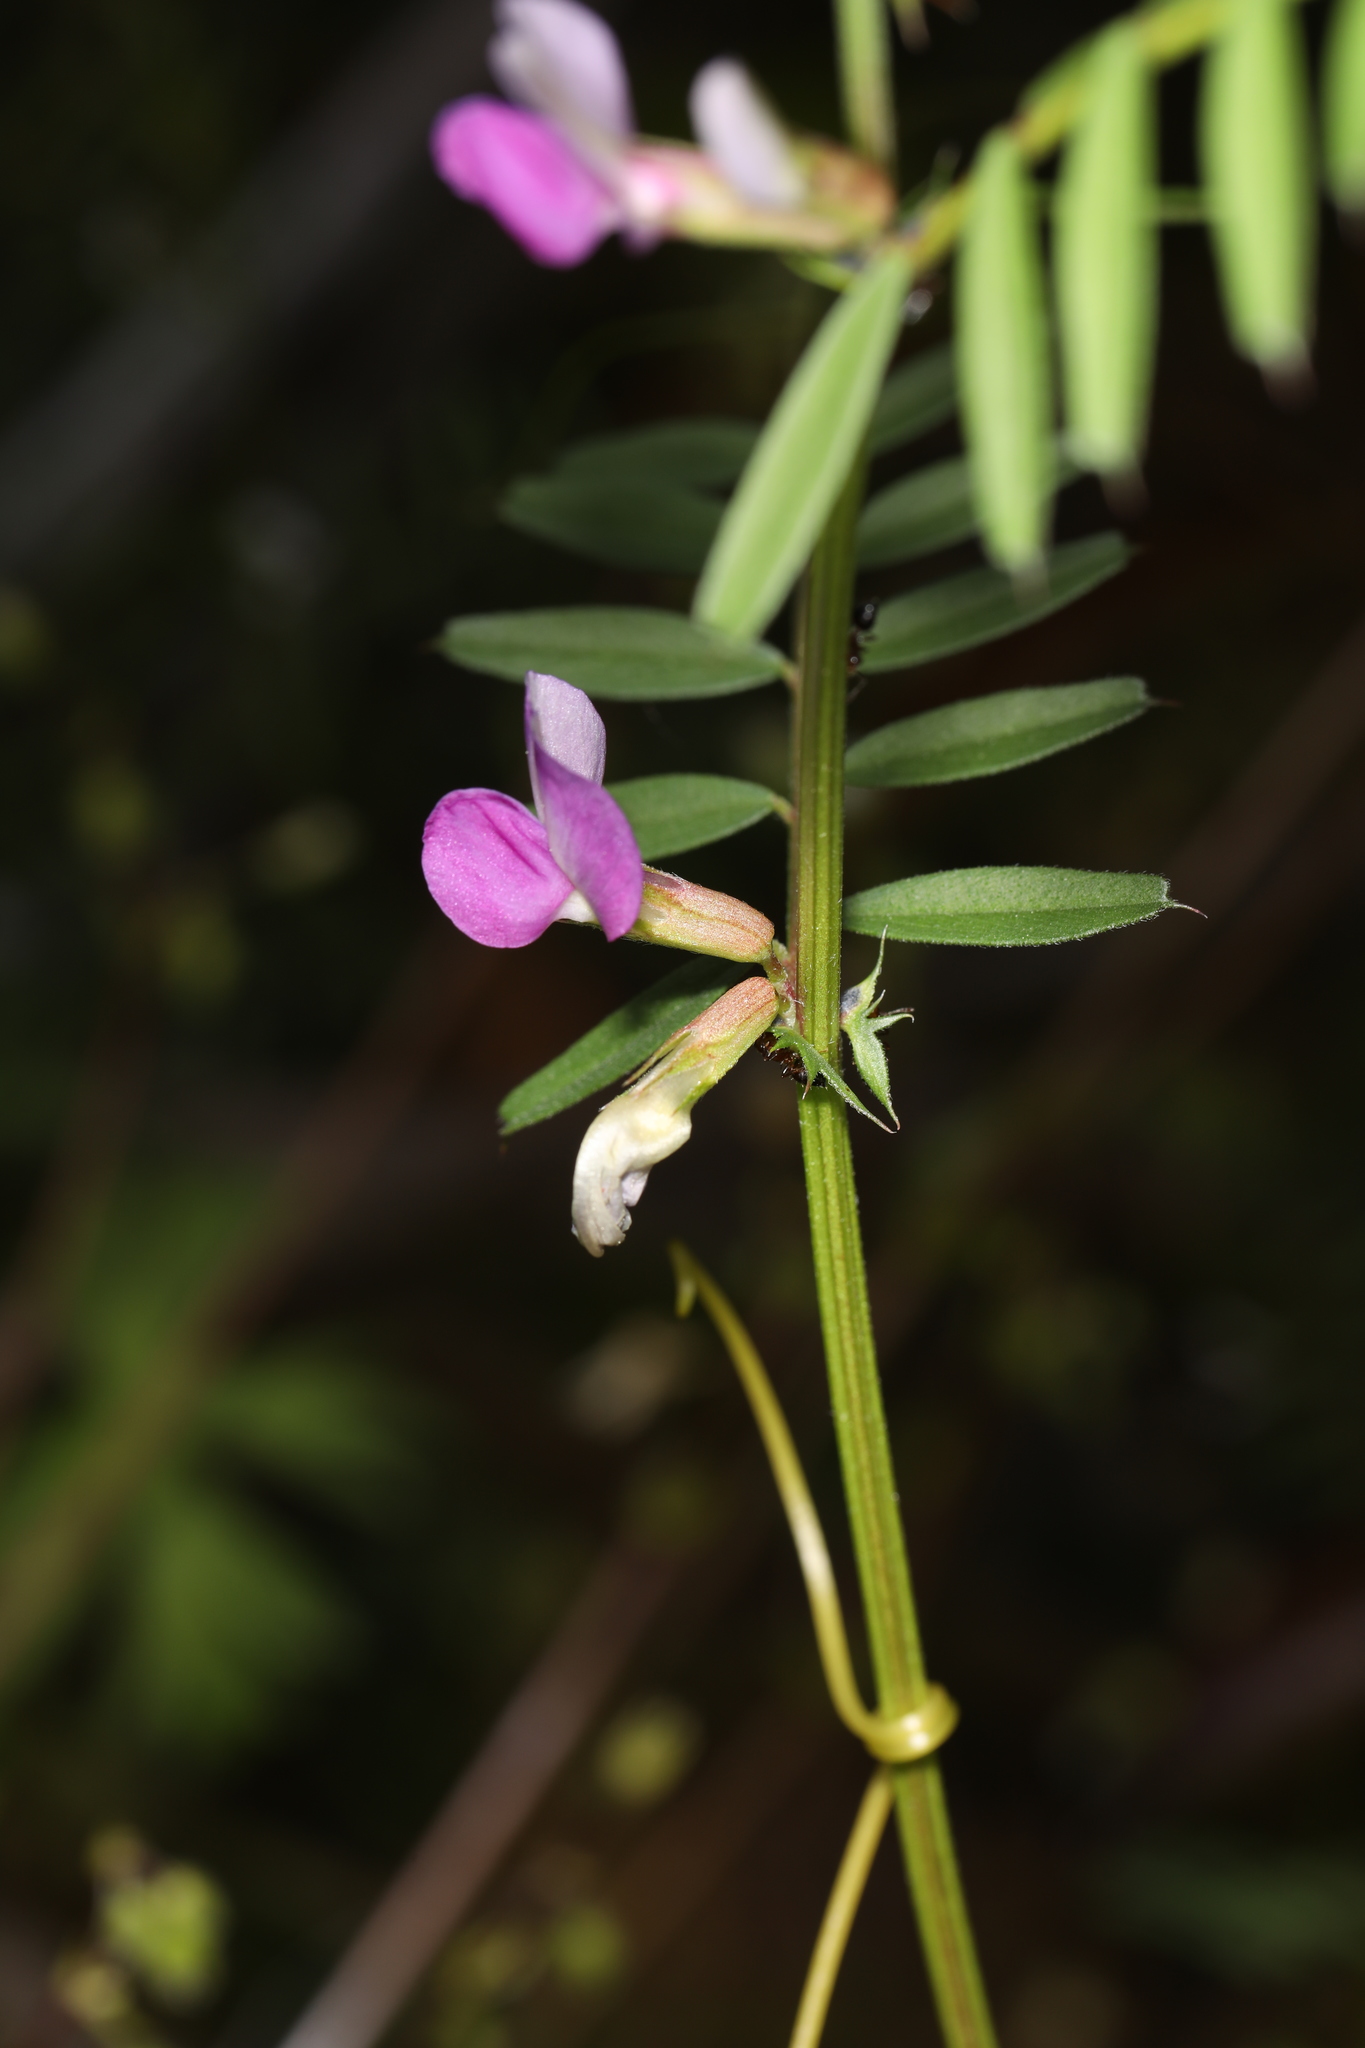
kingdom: Plantae
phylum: Tracheophyta
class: Magnoliopsida
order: Fabales
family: Fabaceae
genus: Vicia
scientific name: Vicia sativa
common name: Garden vetch
